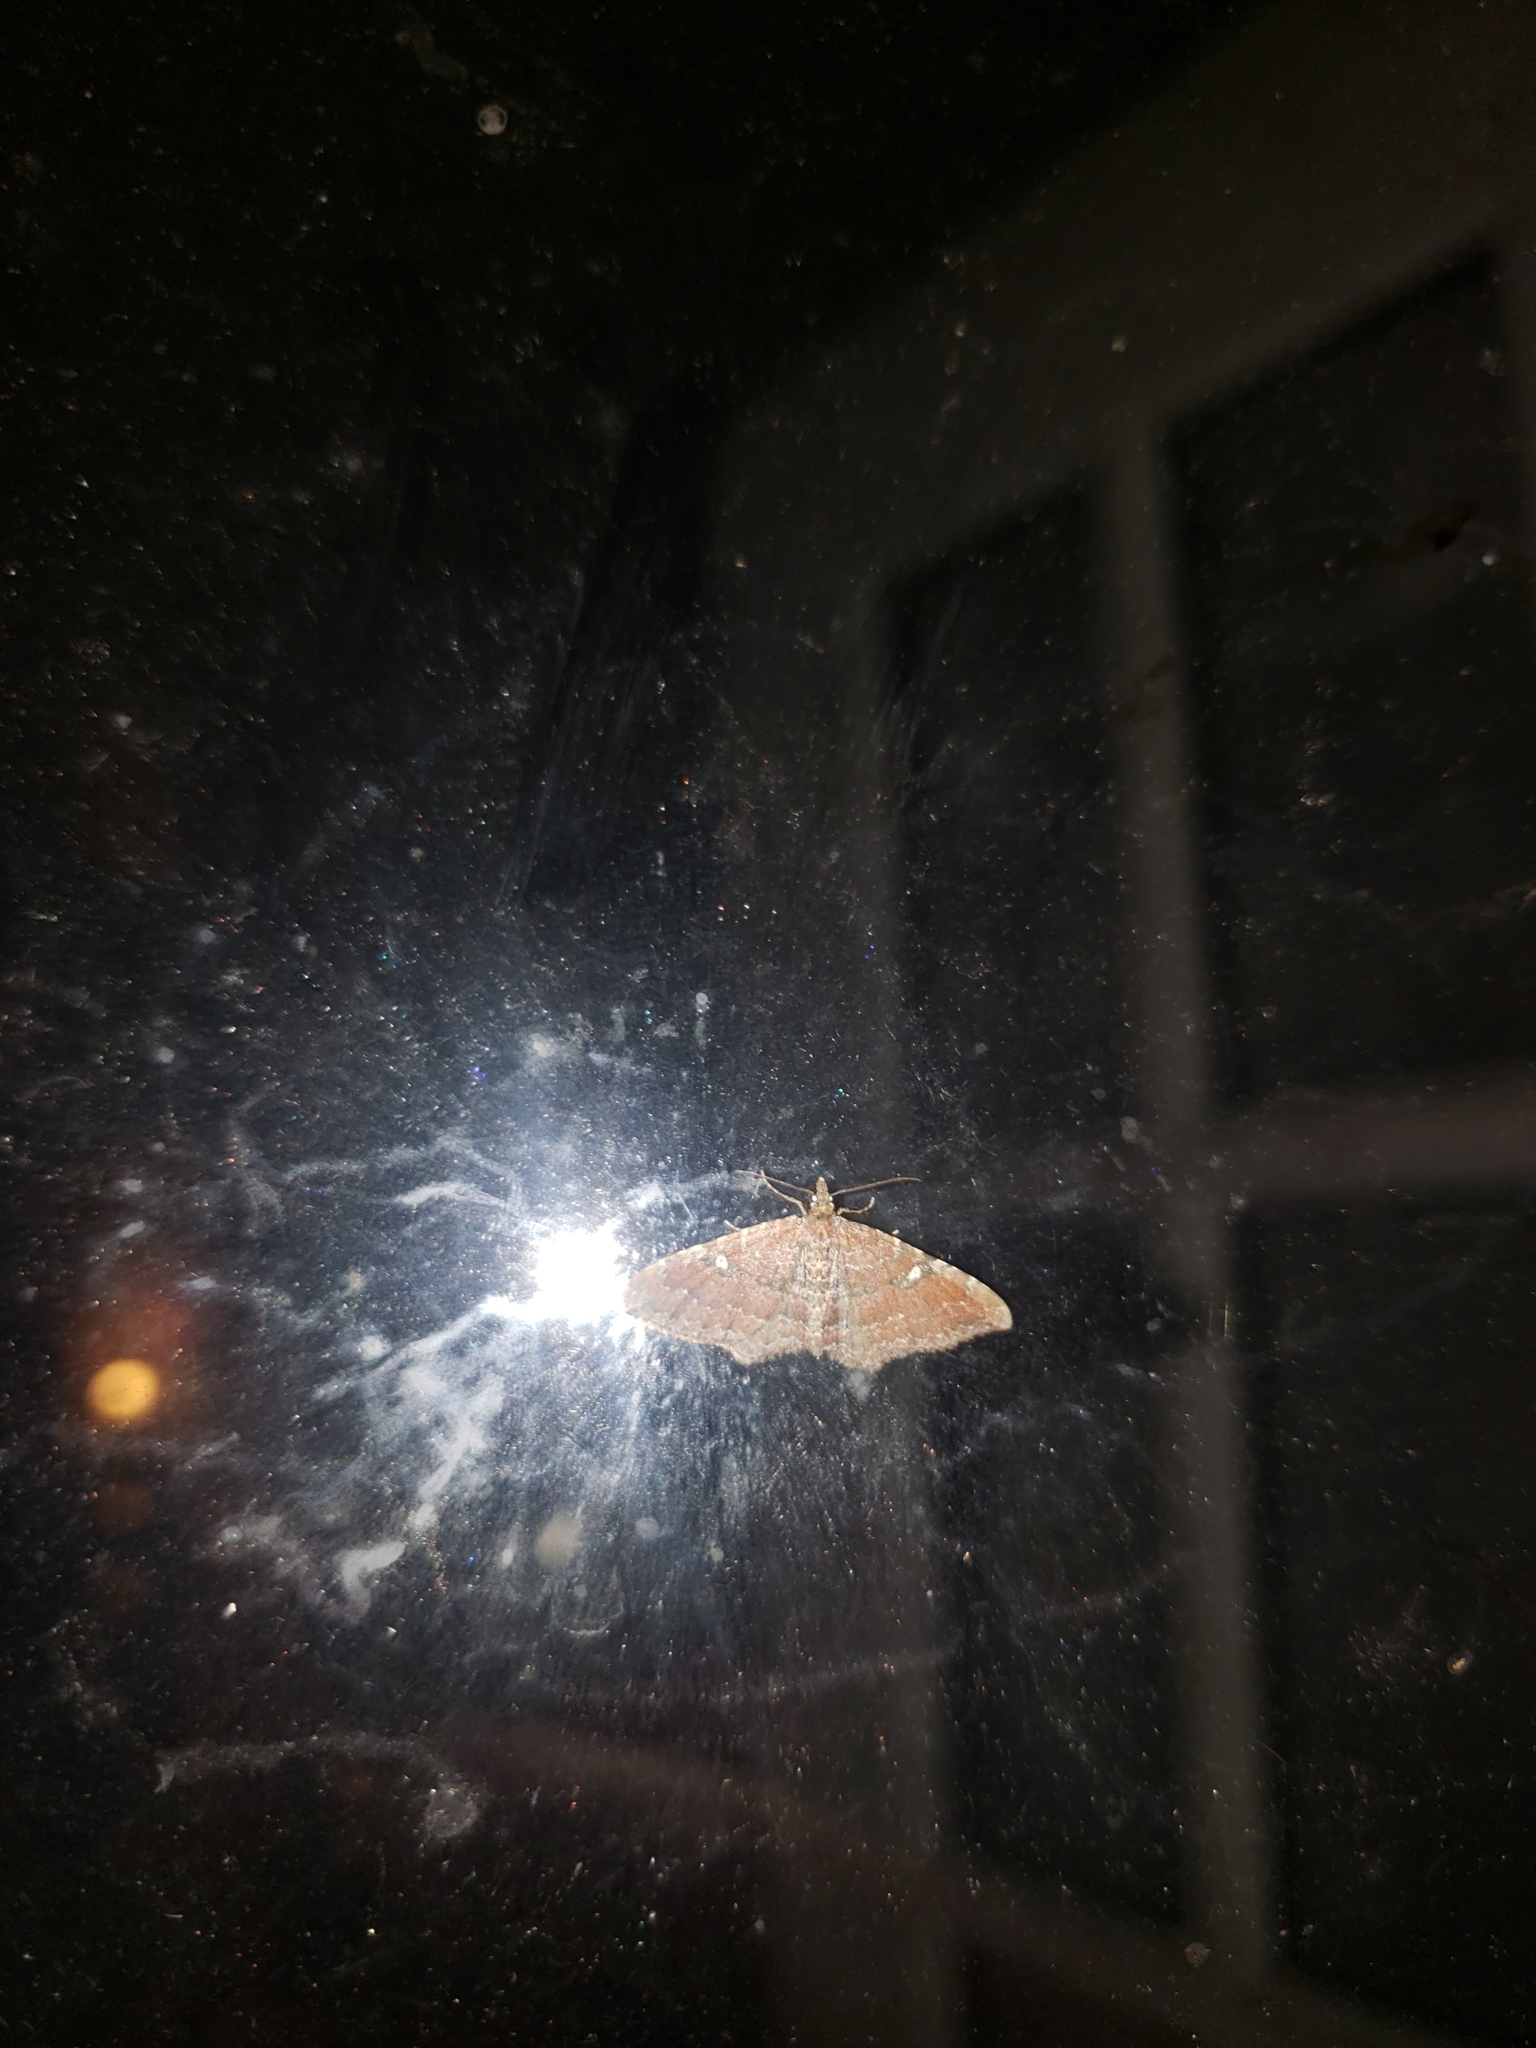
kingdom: Animalia
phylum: Arthropoda
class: Insecta
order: Lepidoptera
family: Geometridae
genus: Orthonama
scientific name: Orthonama obstipata
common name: The gem
